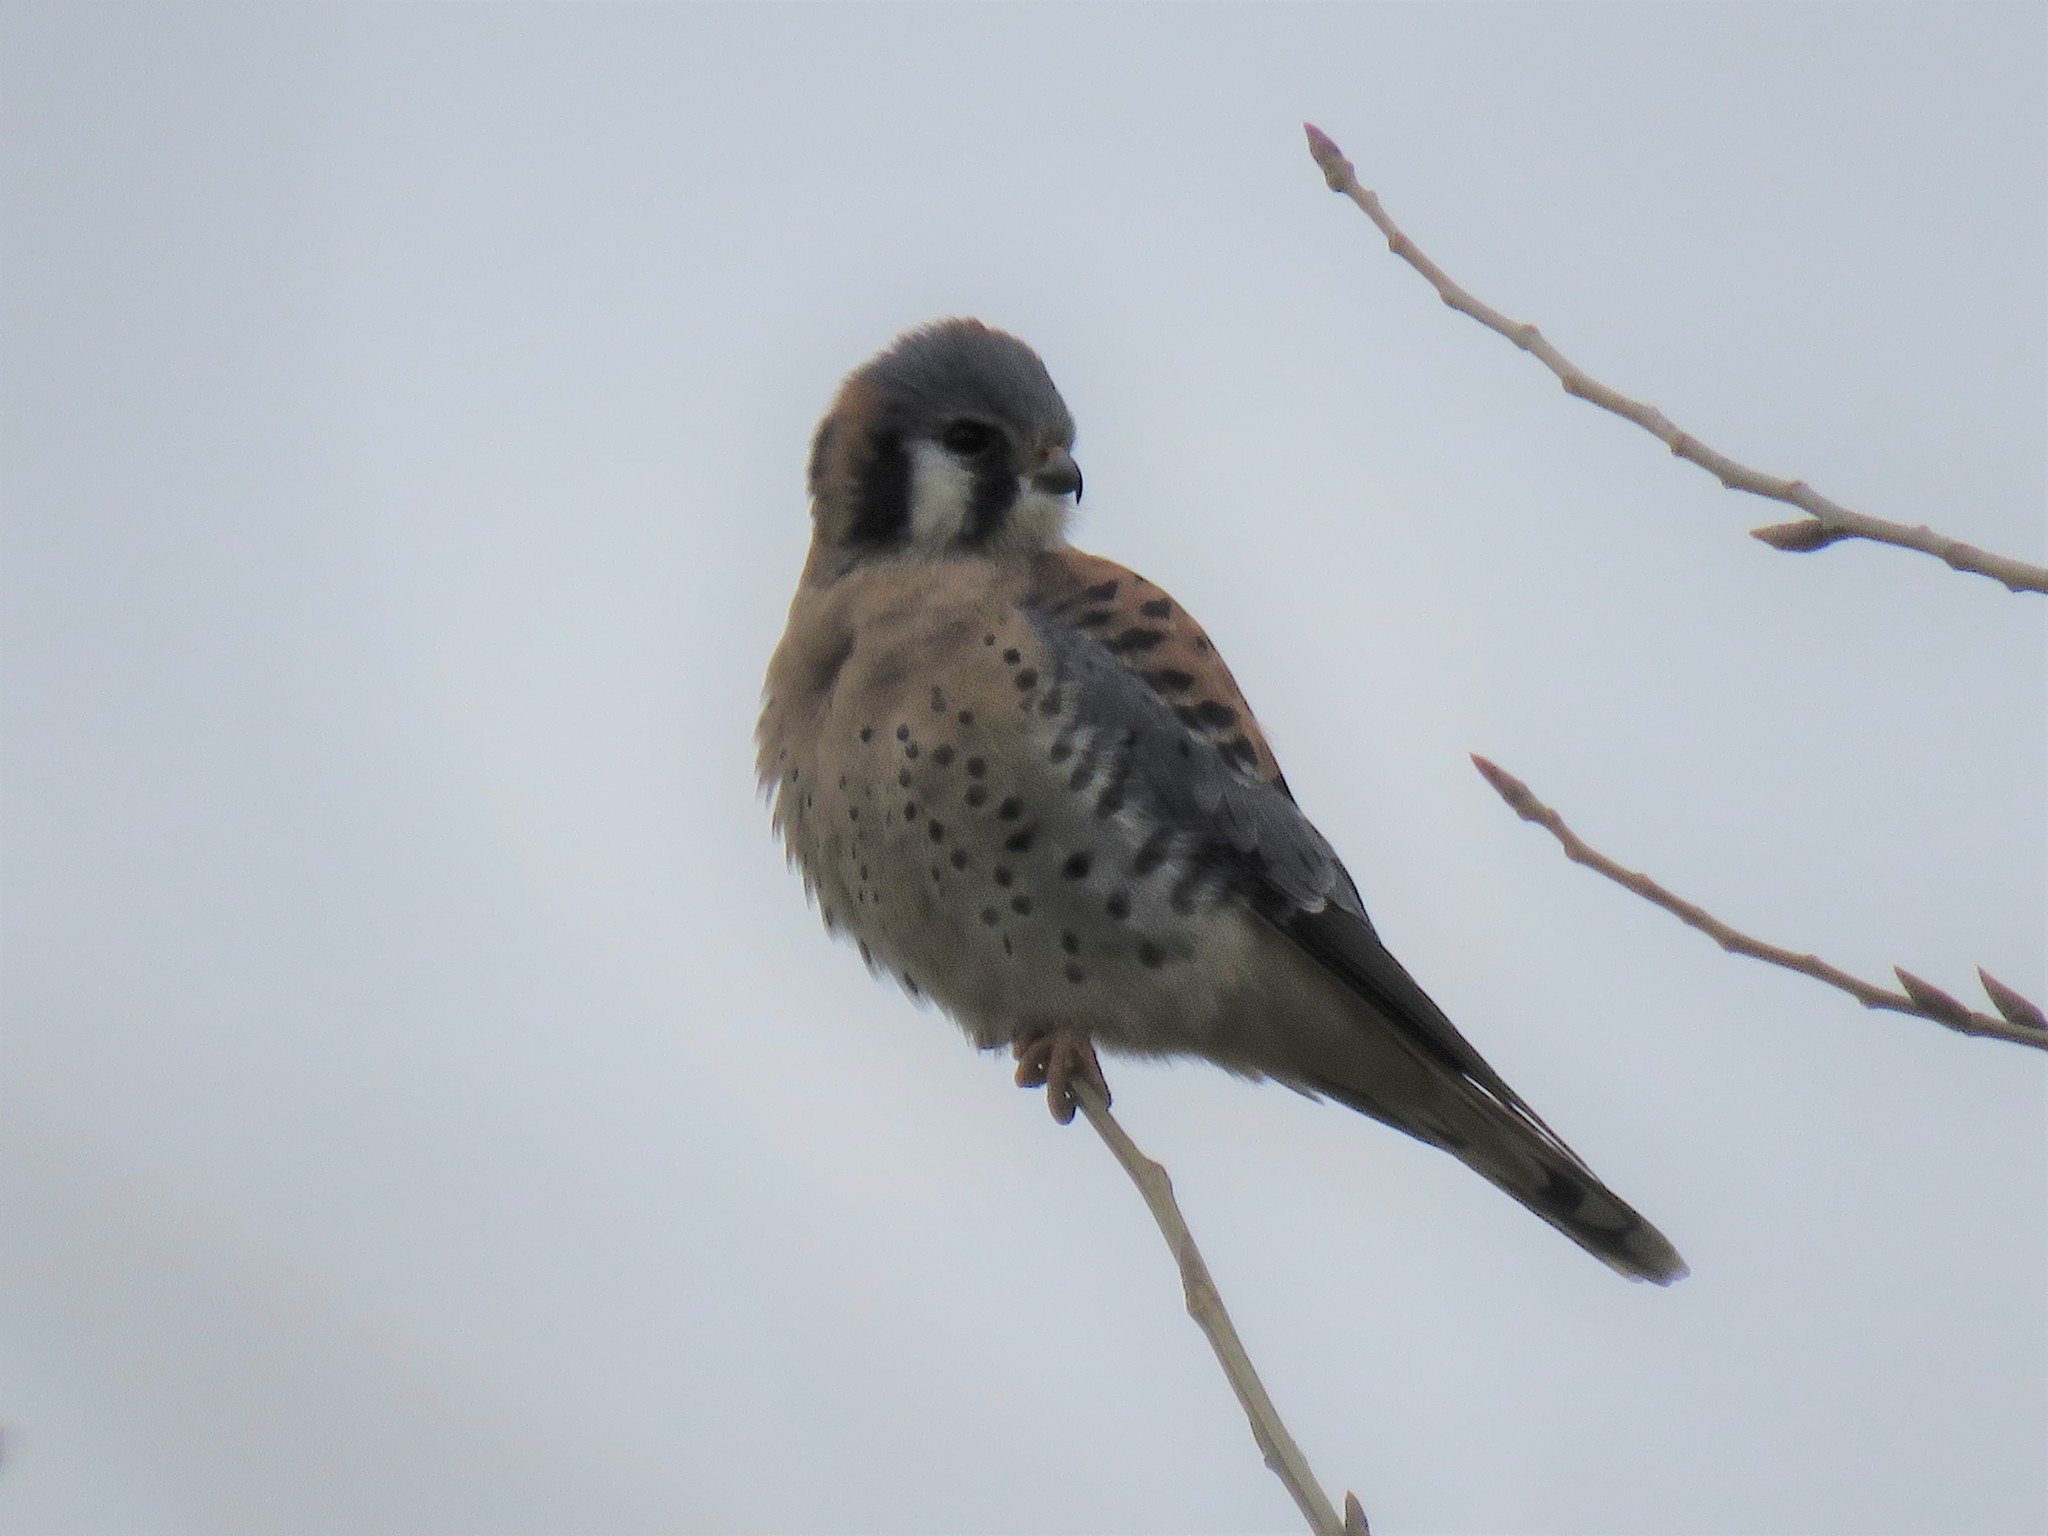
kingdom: Animalia
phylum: Chordata
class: Aves
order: Falconiformes
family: Falconidae
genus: Falco
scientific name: Falco sparverius
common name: American kestrel
